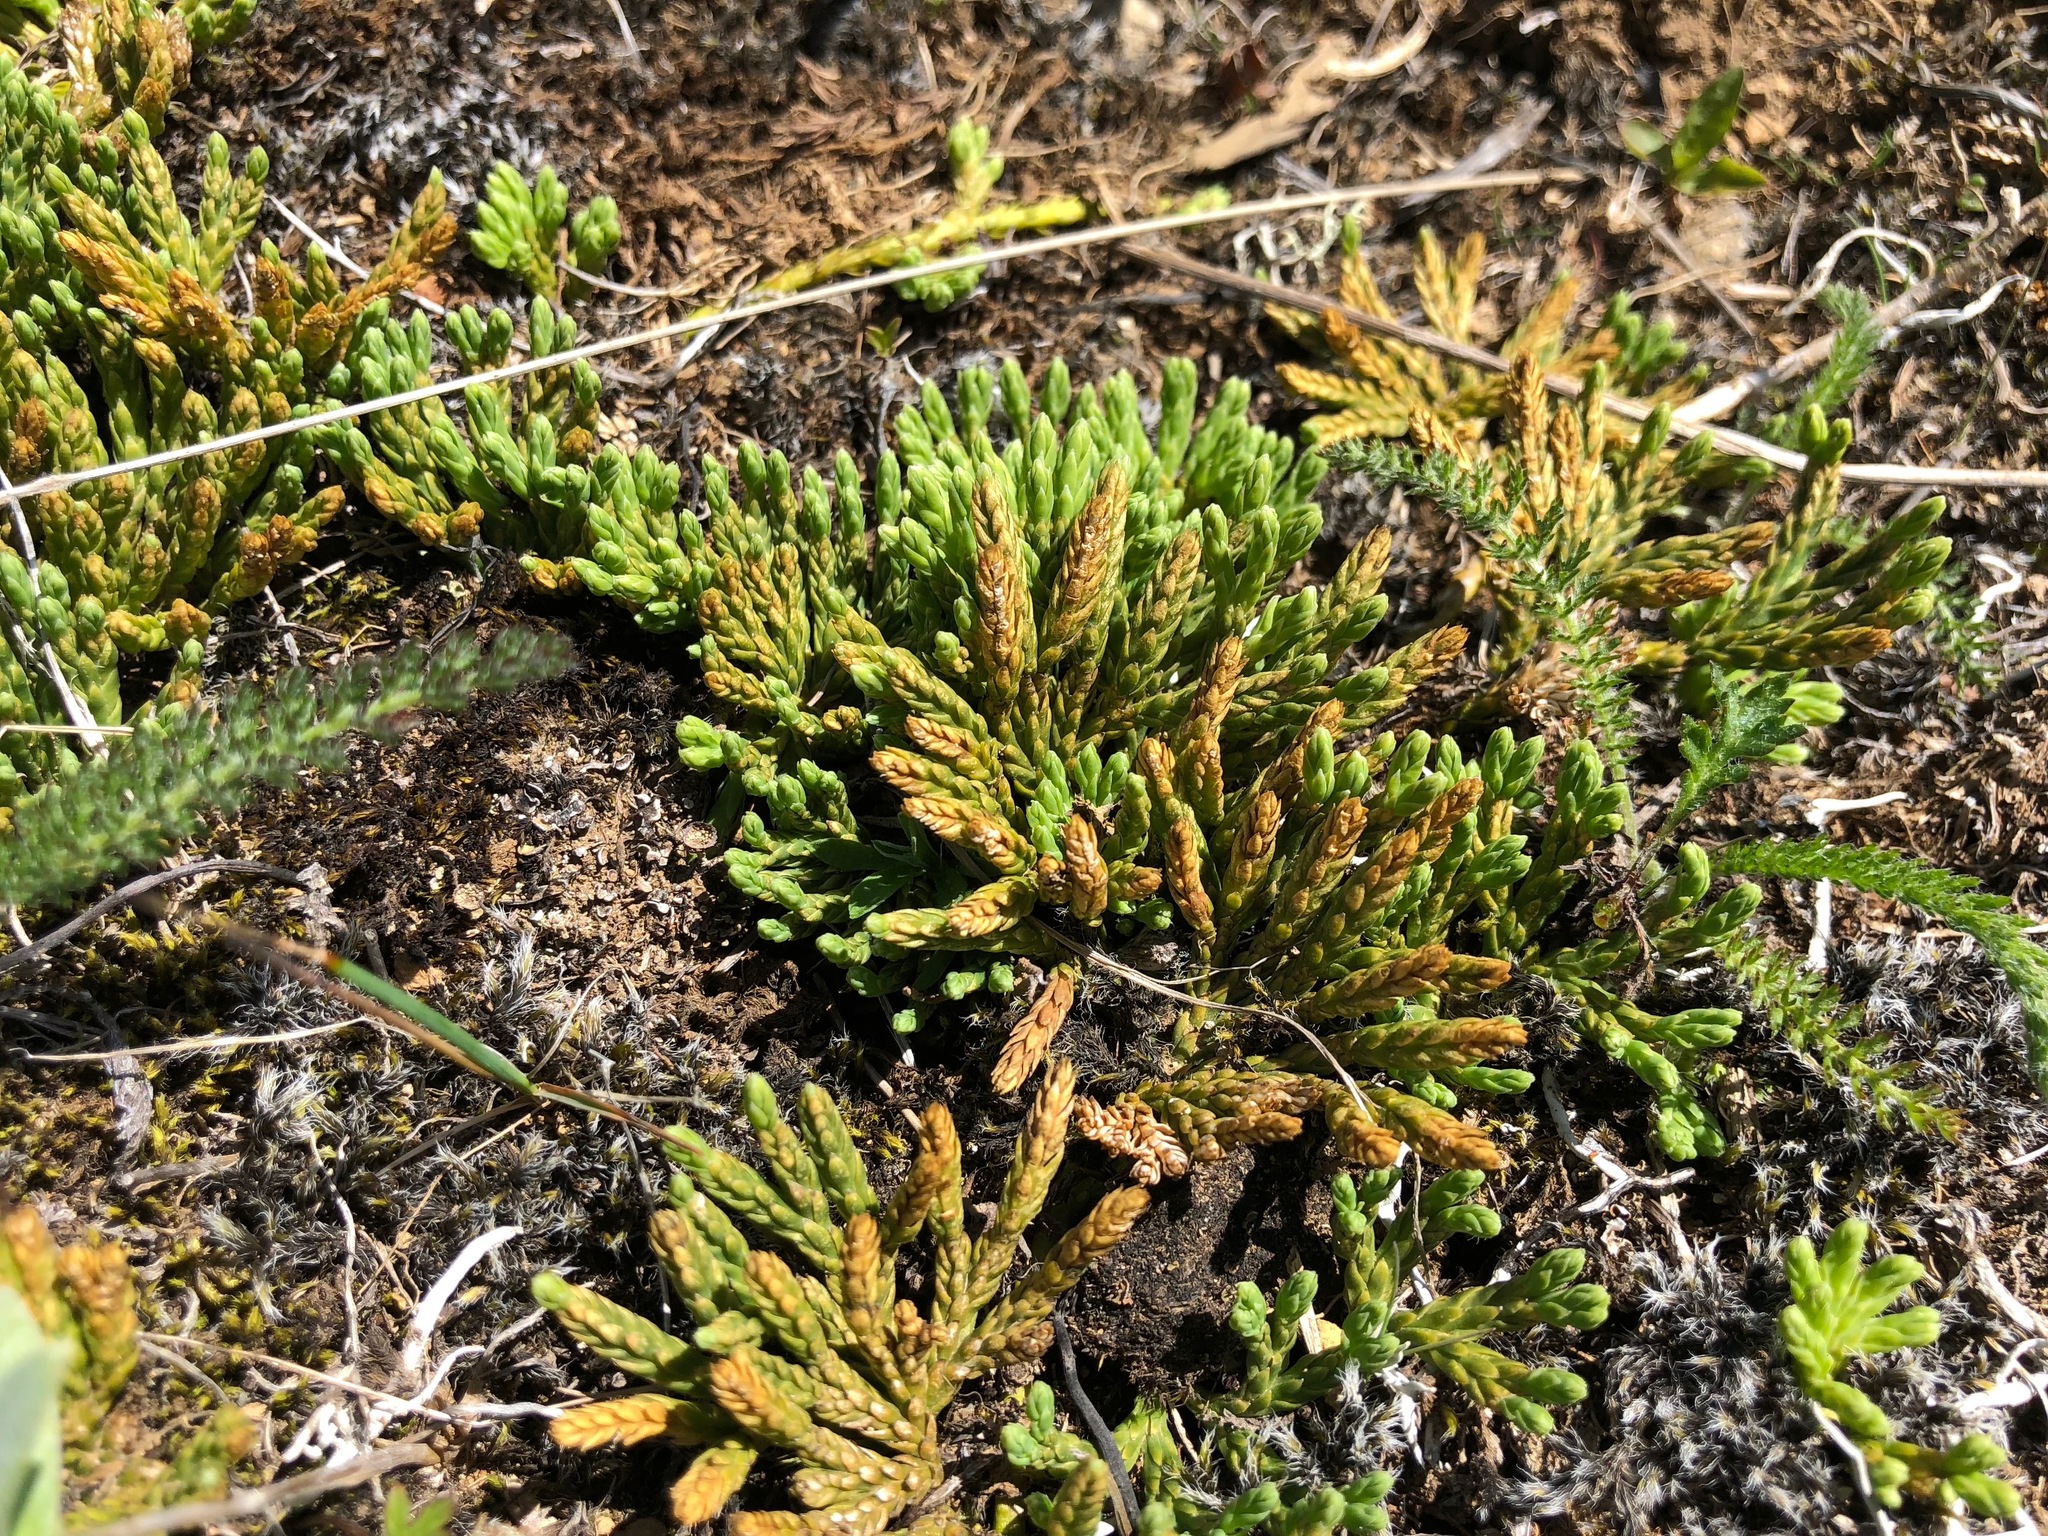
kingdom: Plantae
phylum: Tracheophyta
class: Lycopodiopsida
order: Lycopodiales
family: Lycopodiaceae
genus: Diphasiastrum
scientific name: Diphasiastrum alpinum
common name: Alpine clubmoss
